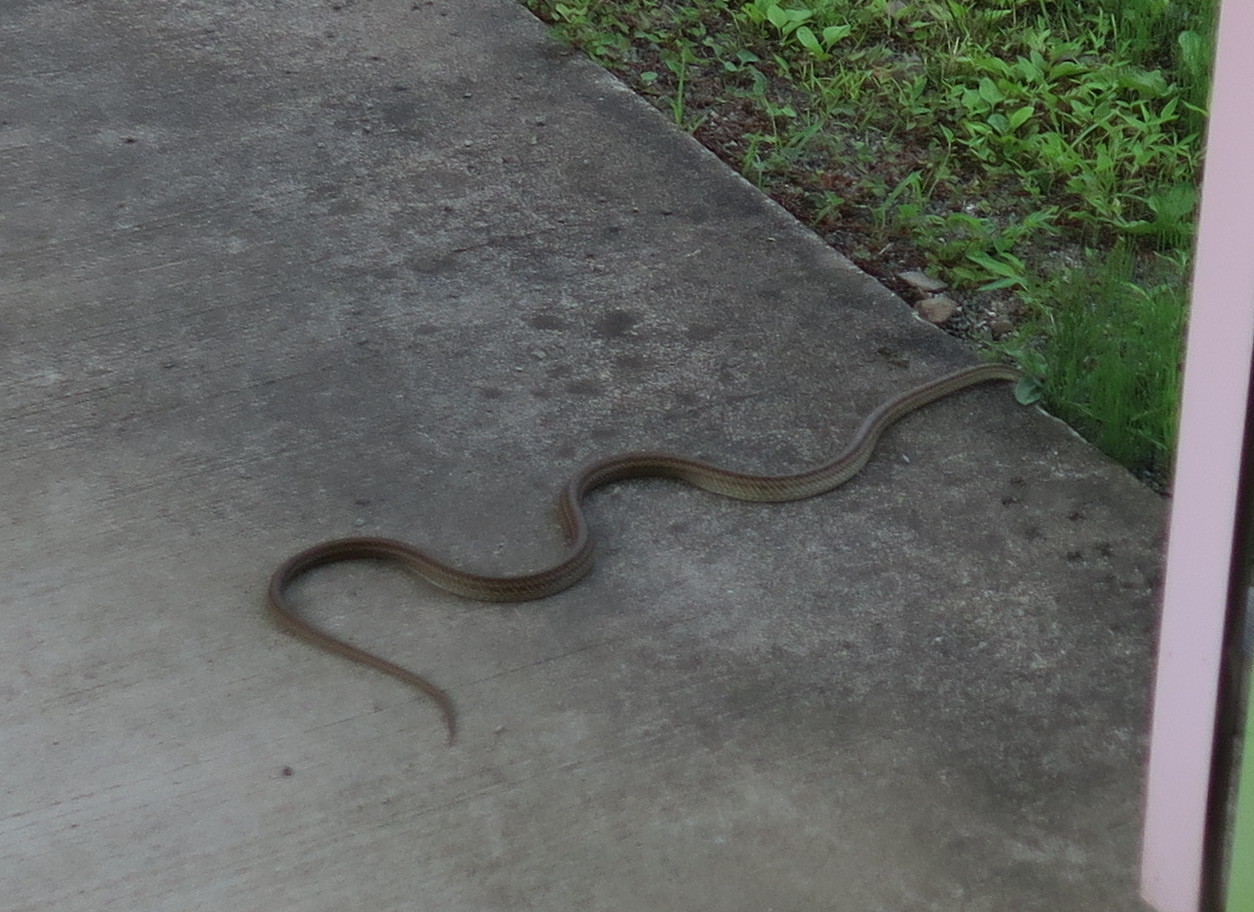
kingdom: Animalia
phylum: Chordata
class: Squamata
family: Colubridae
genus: Elaphe
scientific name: Elaphe quadrivirgata
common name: Japanese four-lined ratsnake
